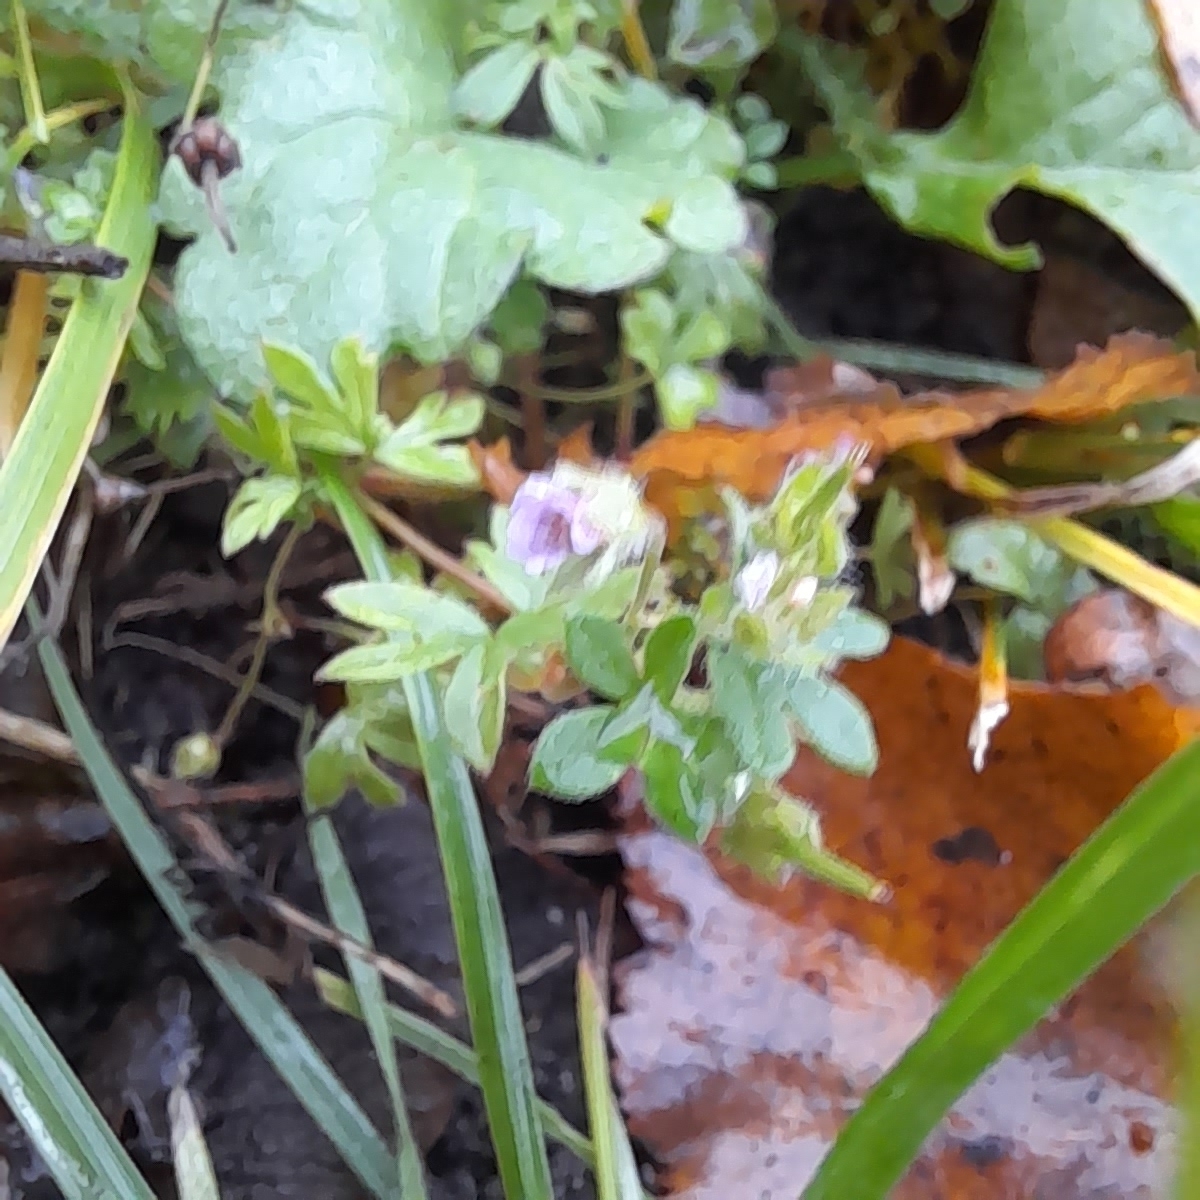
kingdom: Plantae
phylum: Tracheophyta
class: Magnoliopsida
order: Geraniales
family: Geraniaceae
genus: Geranium
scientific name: Geranium pusillum
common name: Small geranium
